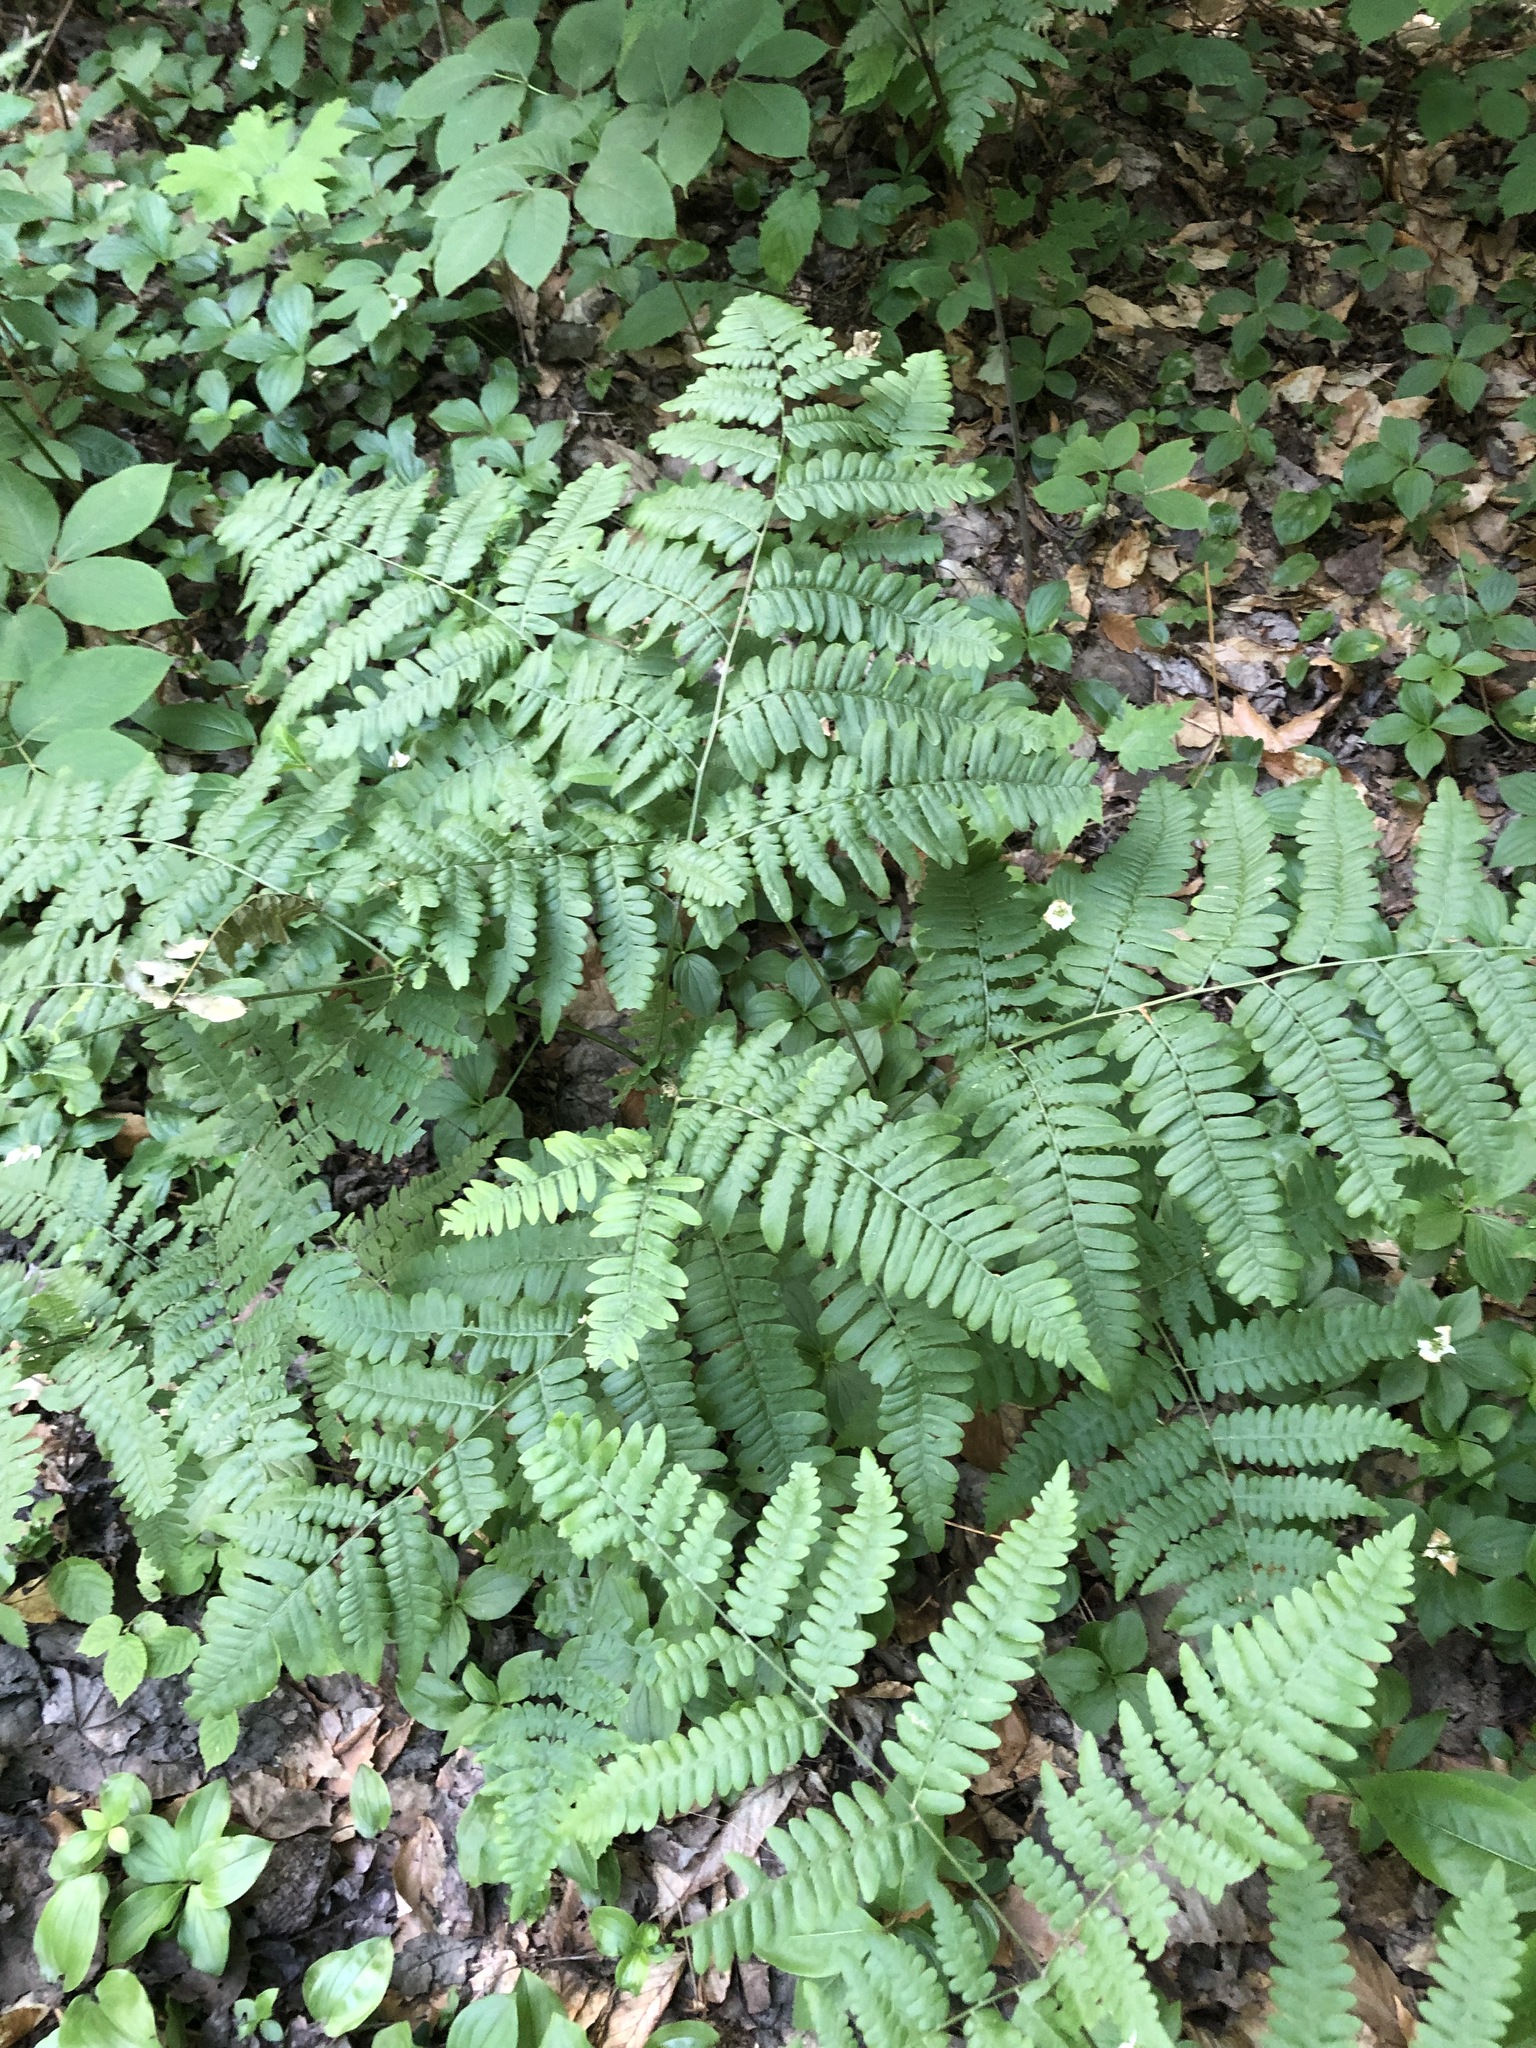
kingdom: Plantae
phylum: Tracheophyta
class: Polypodiopsida
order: Polypodiales
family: Dennstaedtiaceae
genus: Pteridium
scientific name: Pteridium aquilinum
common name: Bracken
